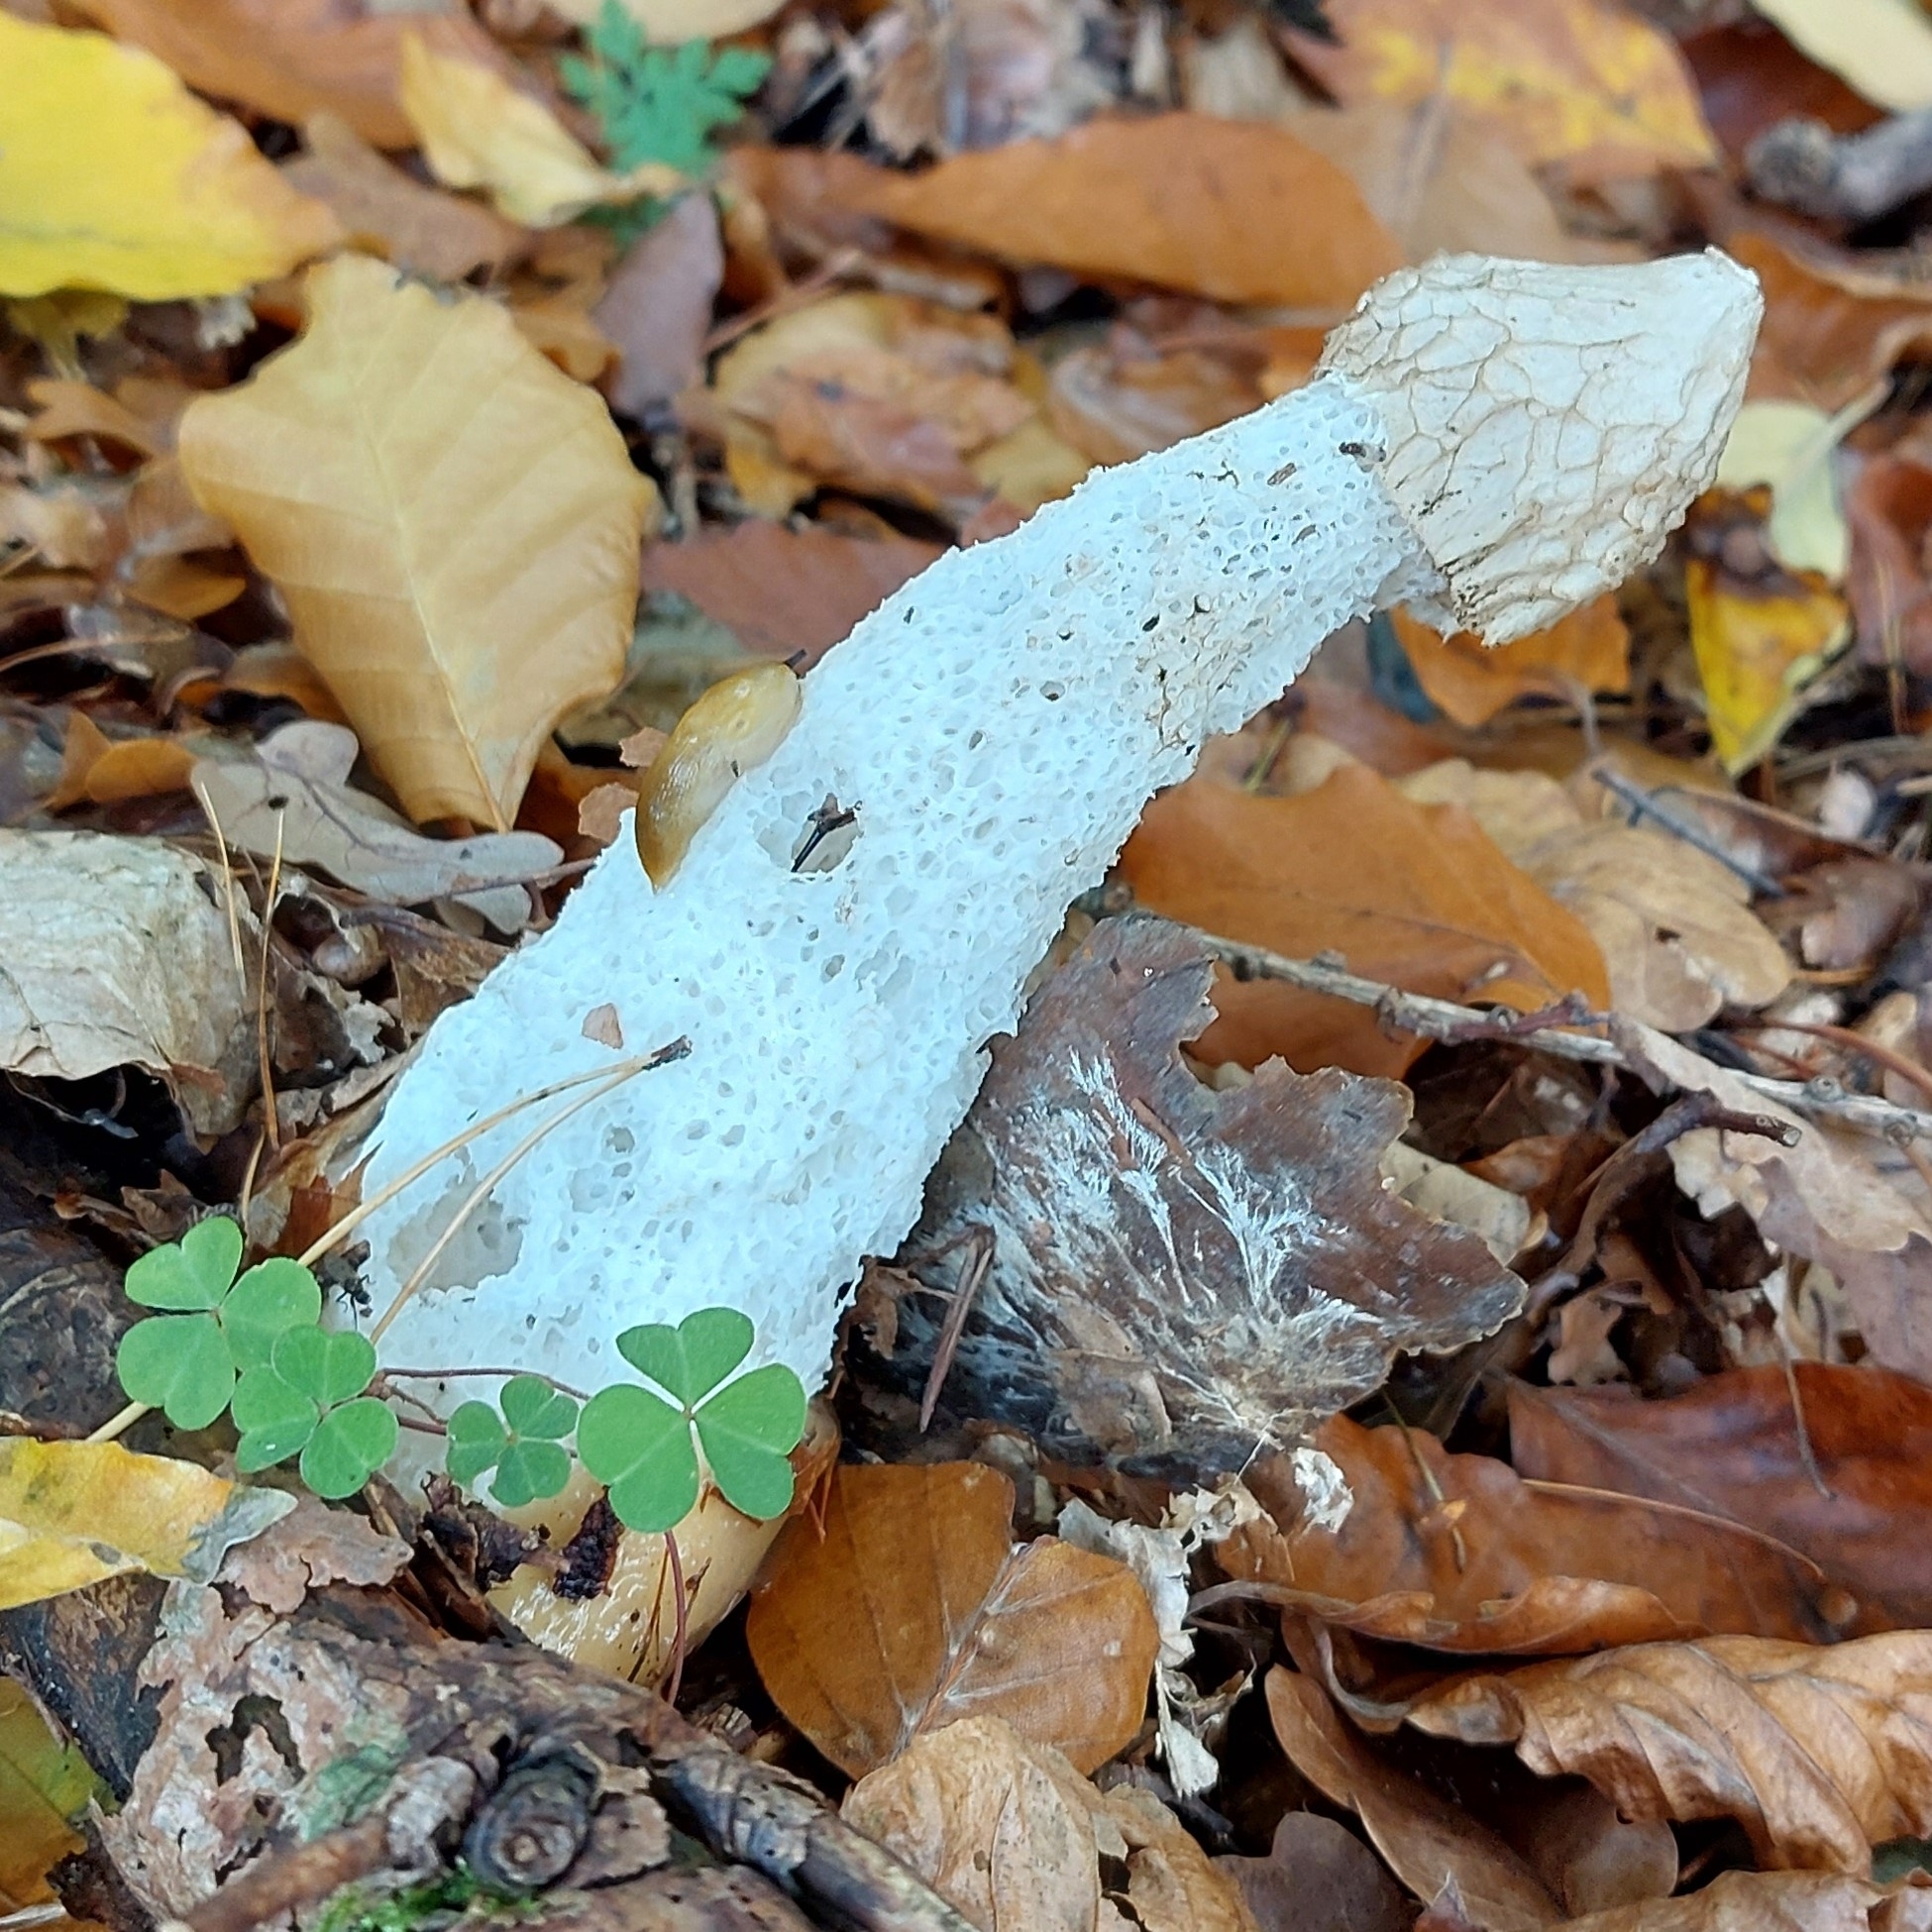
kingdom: Fungi
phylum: Basidiomycota
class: Agaricomycetes
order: Phallales
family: Phallaceae
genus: Phallus
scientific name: Phallus impudicus
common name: Common stinkhorn
